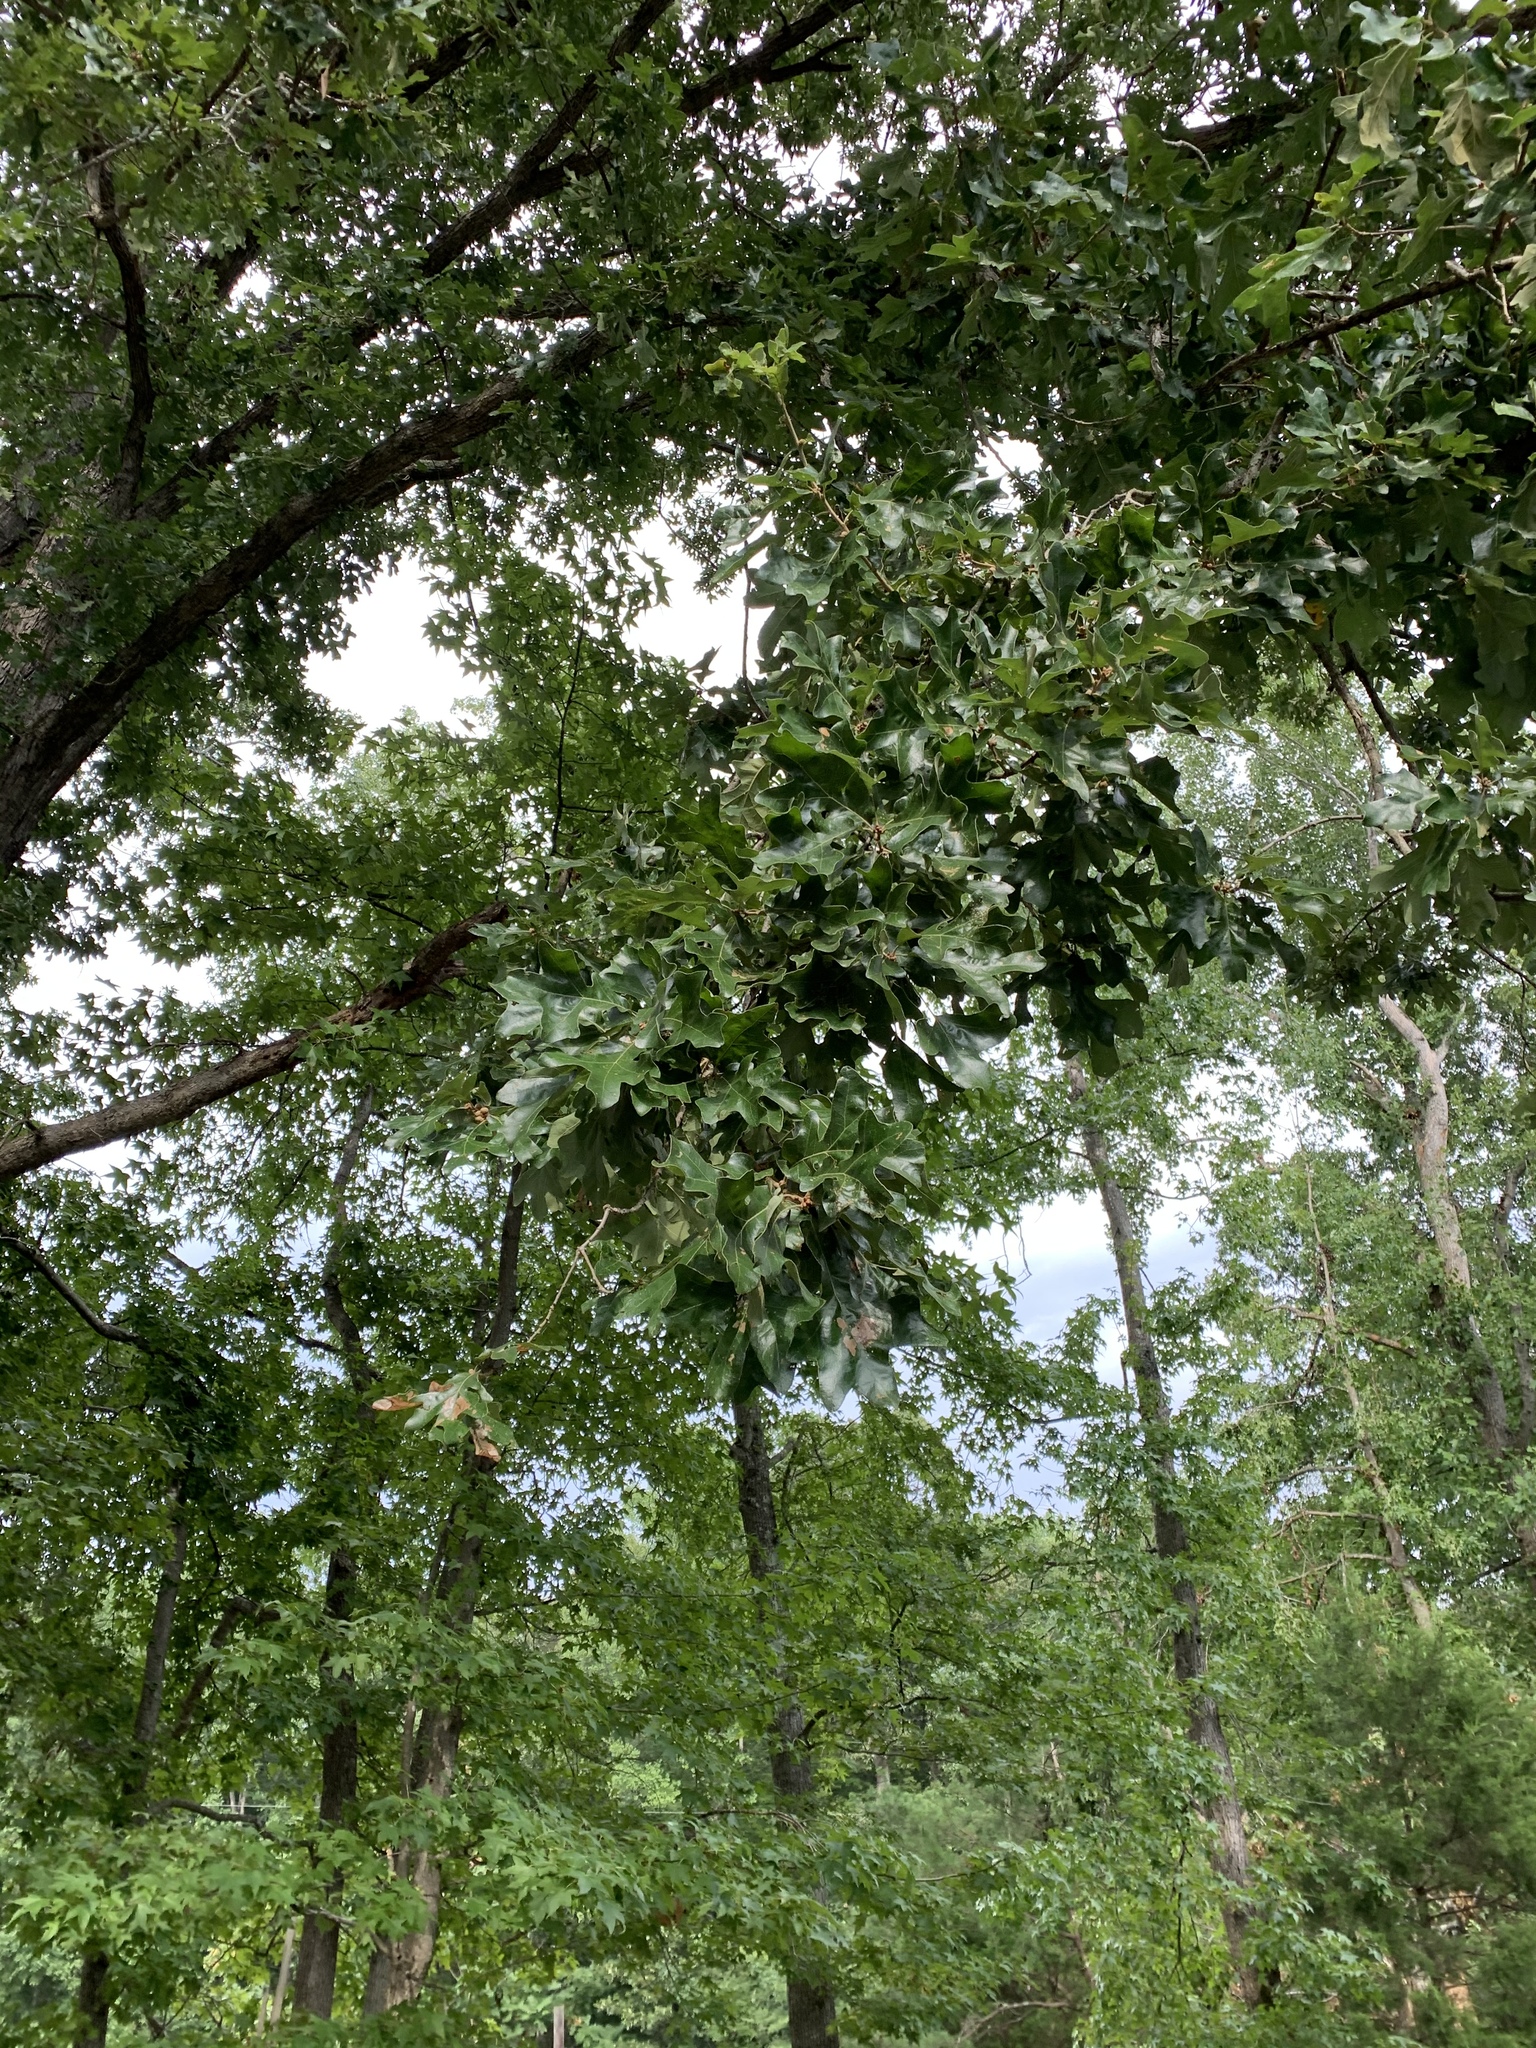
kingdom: Plantae
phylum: Tracheophyta
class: Magnoliopsida
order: Fagales
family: Fagaceae
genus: Quercus
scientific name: Quercus stellata
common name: Post oak
